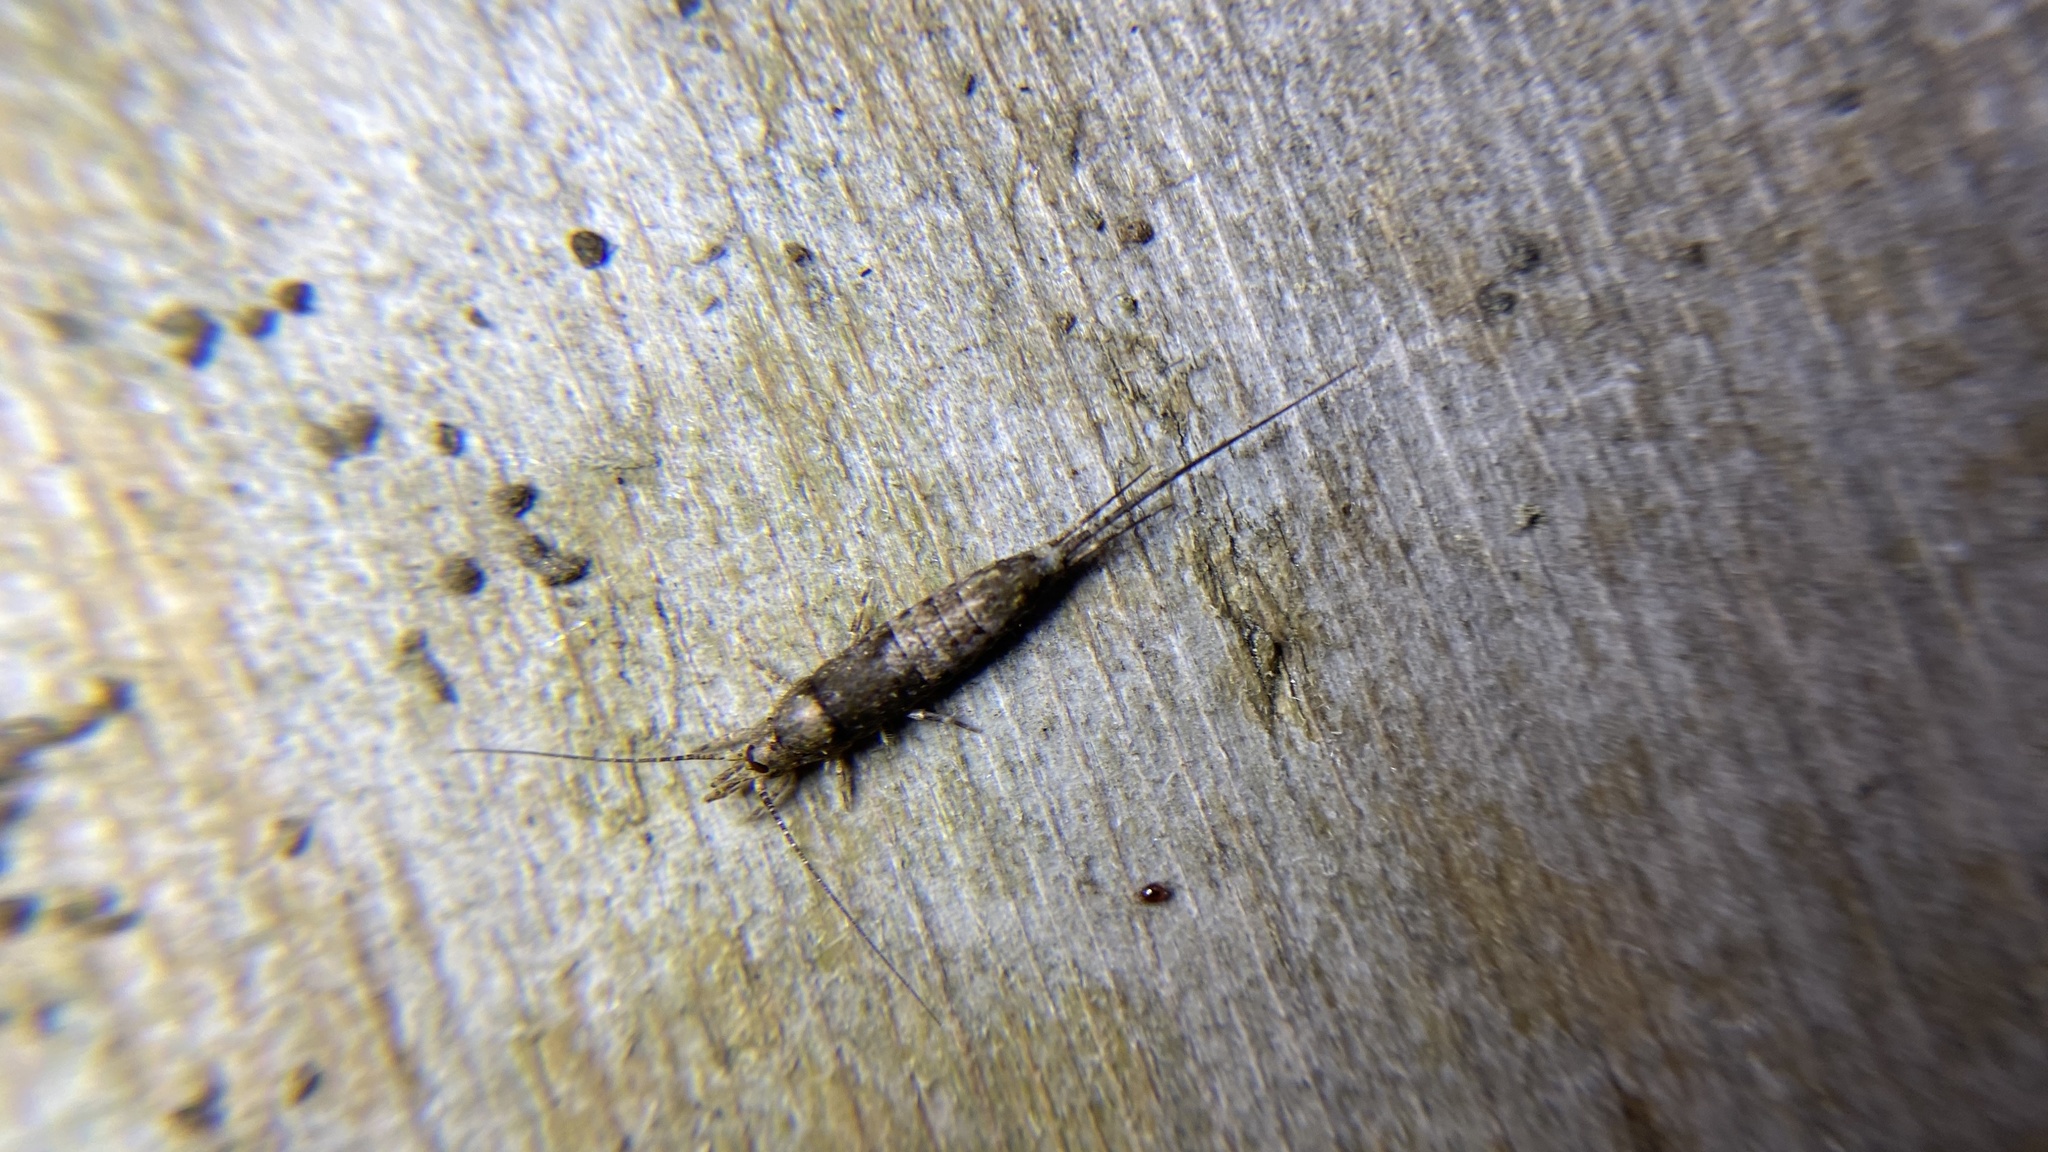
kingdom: Animalia
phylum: Arthropoda
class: Insecta
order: Archaeognatha
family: Machilidae
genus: Trigoniophthalmus
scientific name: Trigoniophthalmus alternatus
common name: Jumping bristletail
